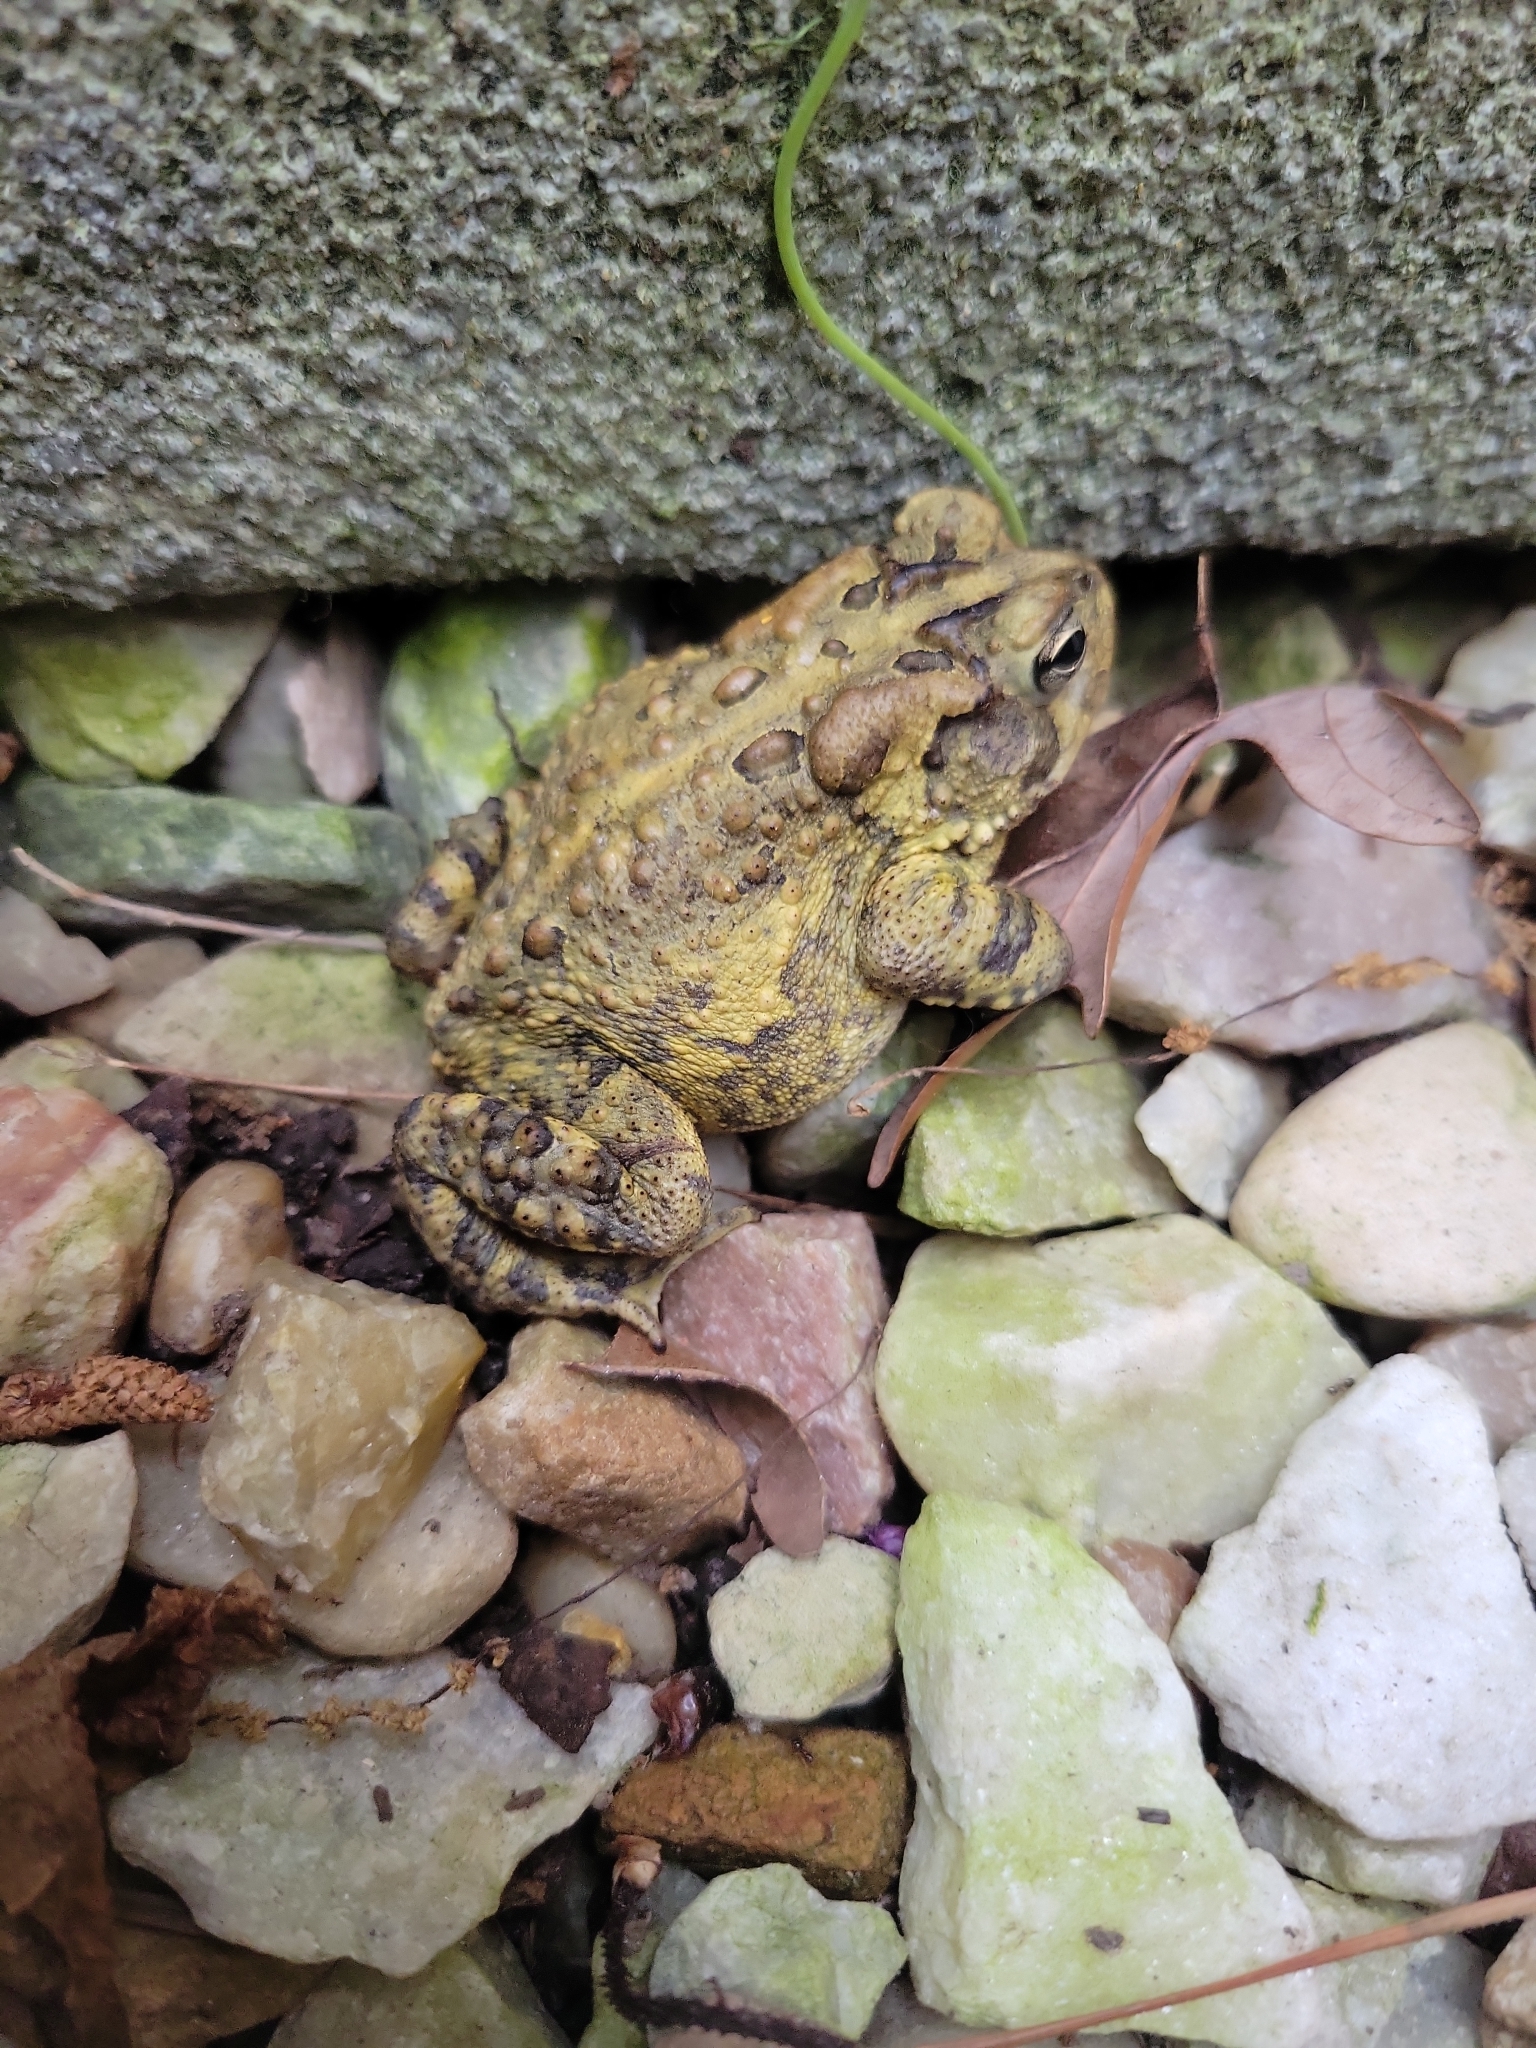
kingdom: Animalia
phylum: Chordata
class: Amphibia
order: Anura
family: Bufonidae
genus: Anaxyrus
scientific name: Anaxyrus terrestris
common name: Southern toad
